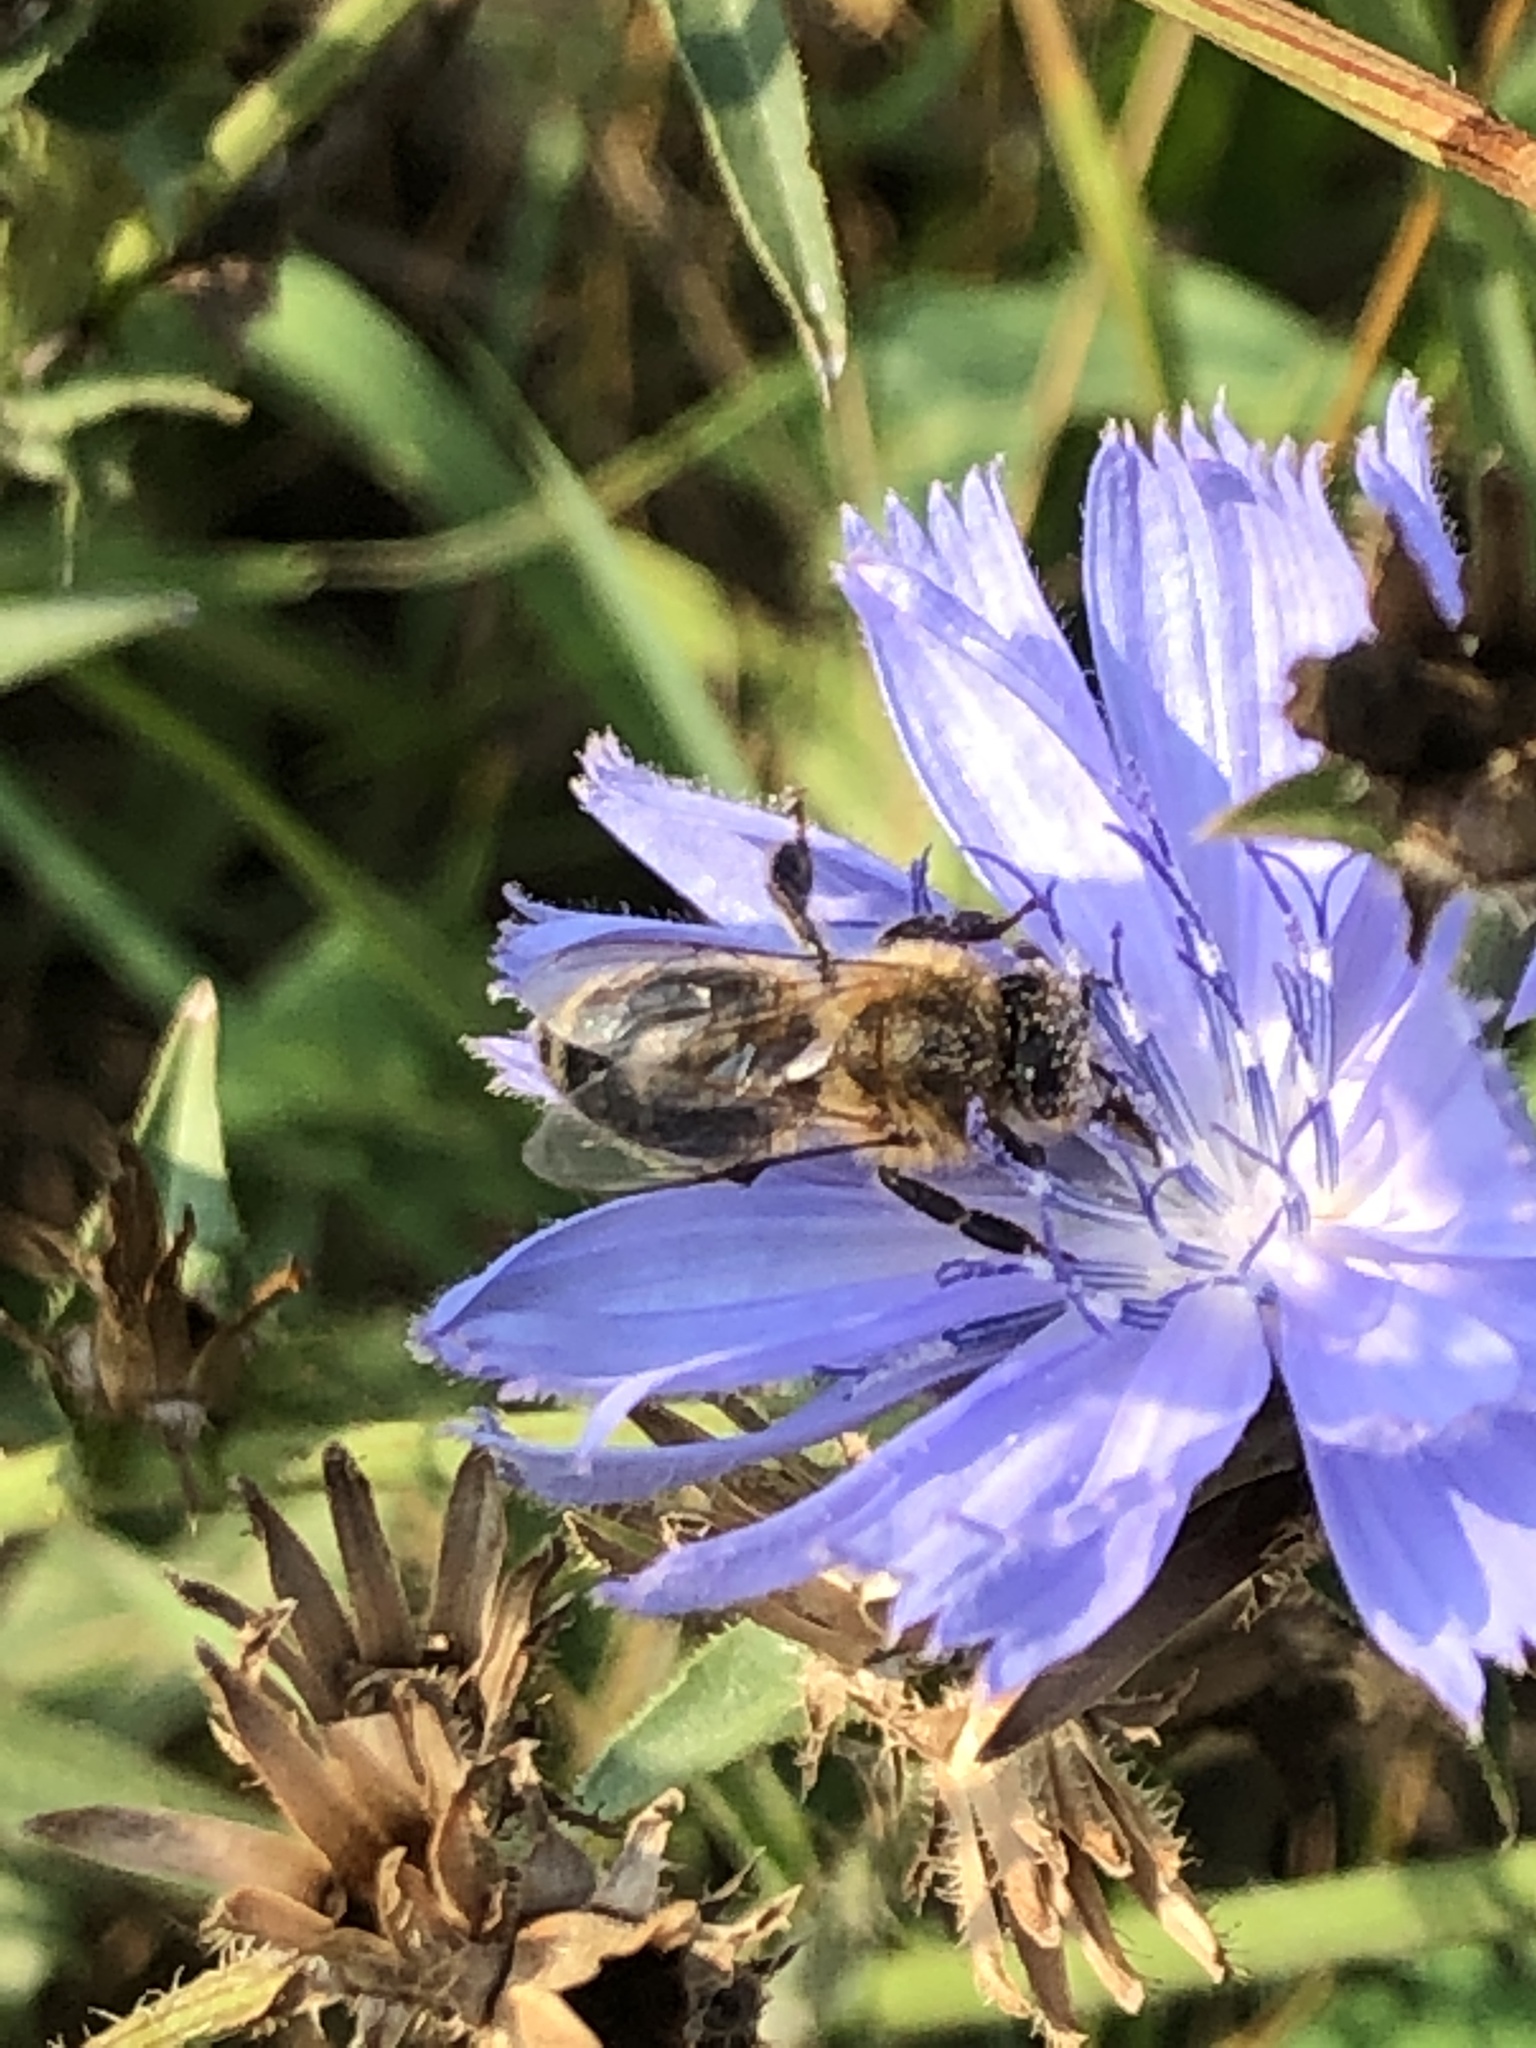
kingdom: Animalia
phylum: Arthropoda
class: Insecta
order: Hymenoptera
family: Apidae
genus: Apis
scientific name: Apis mellifera
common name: Honey bee
